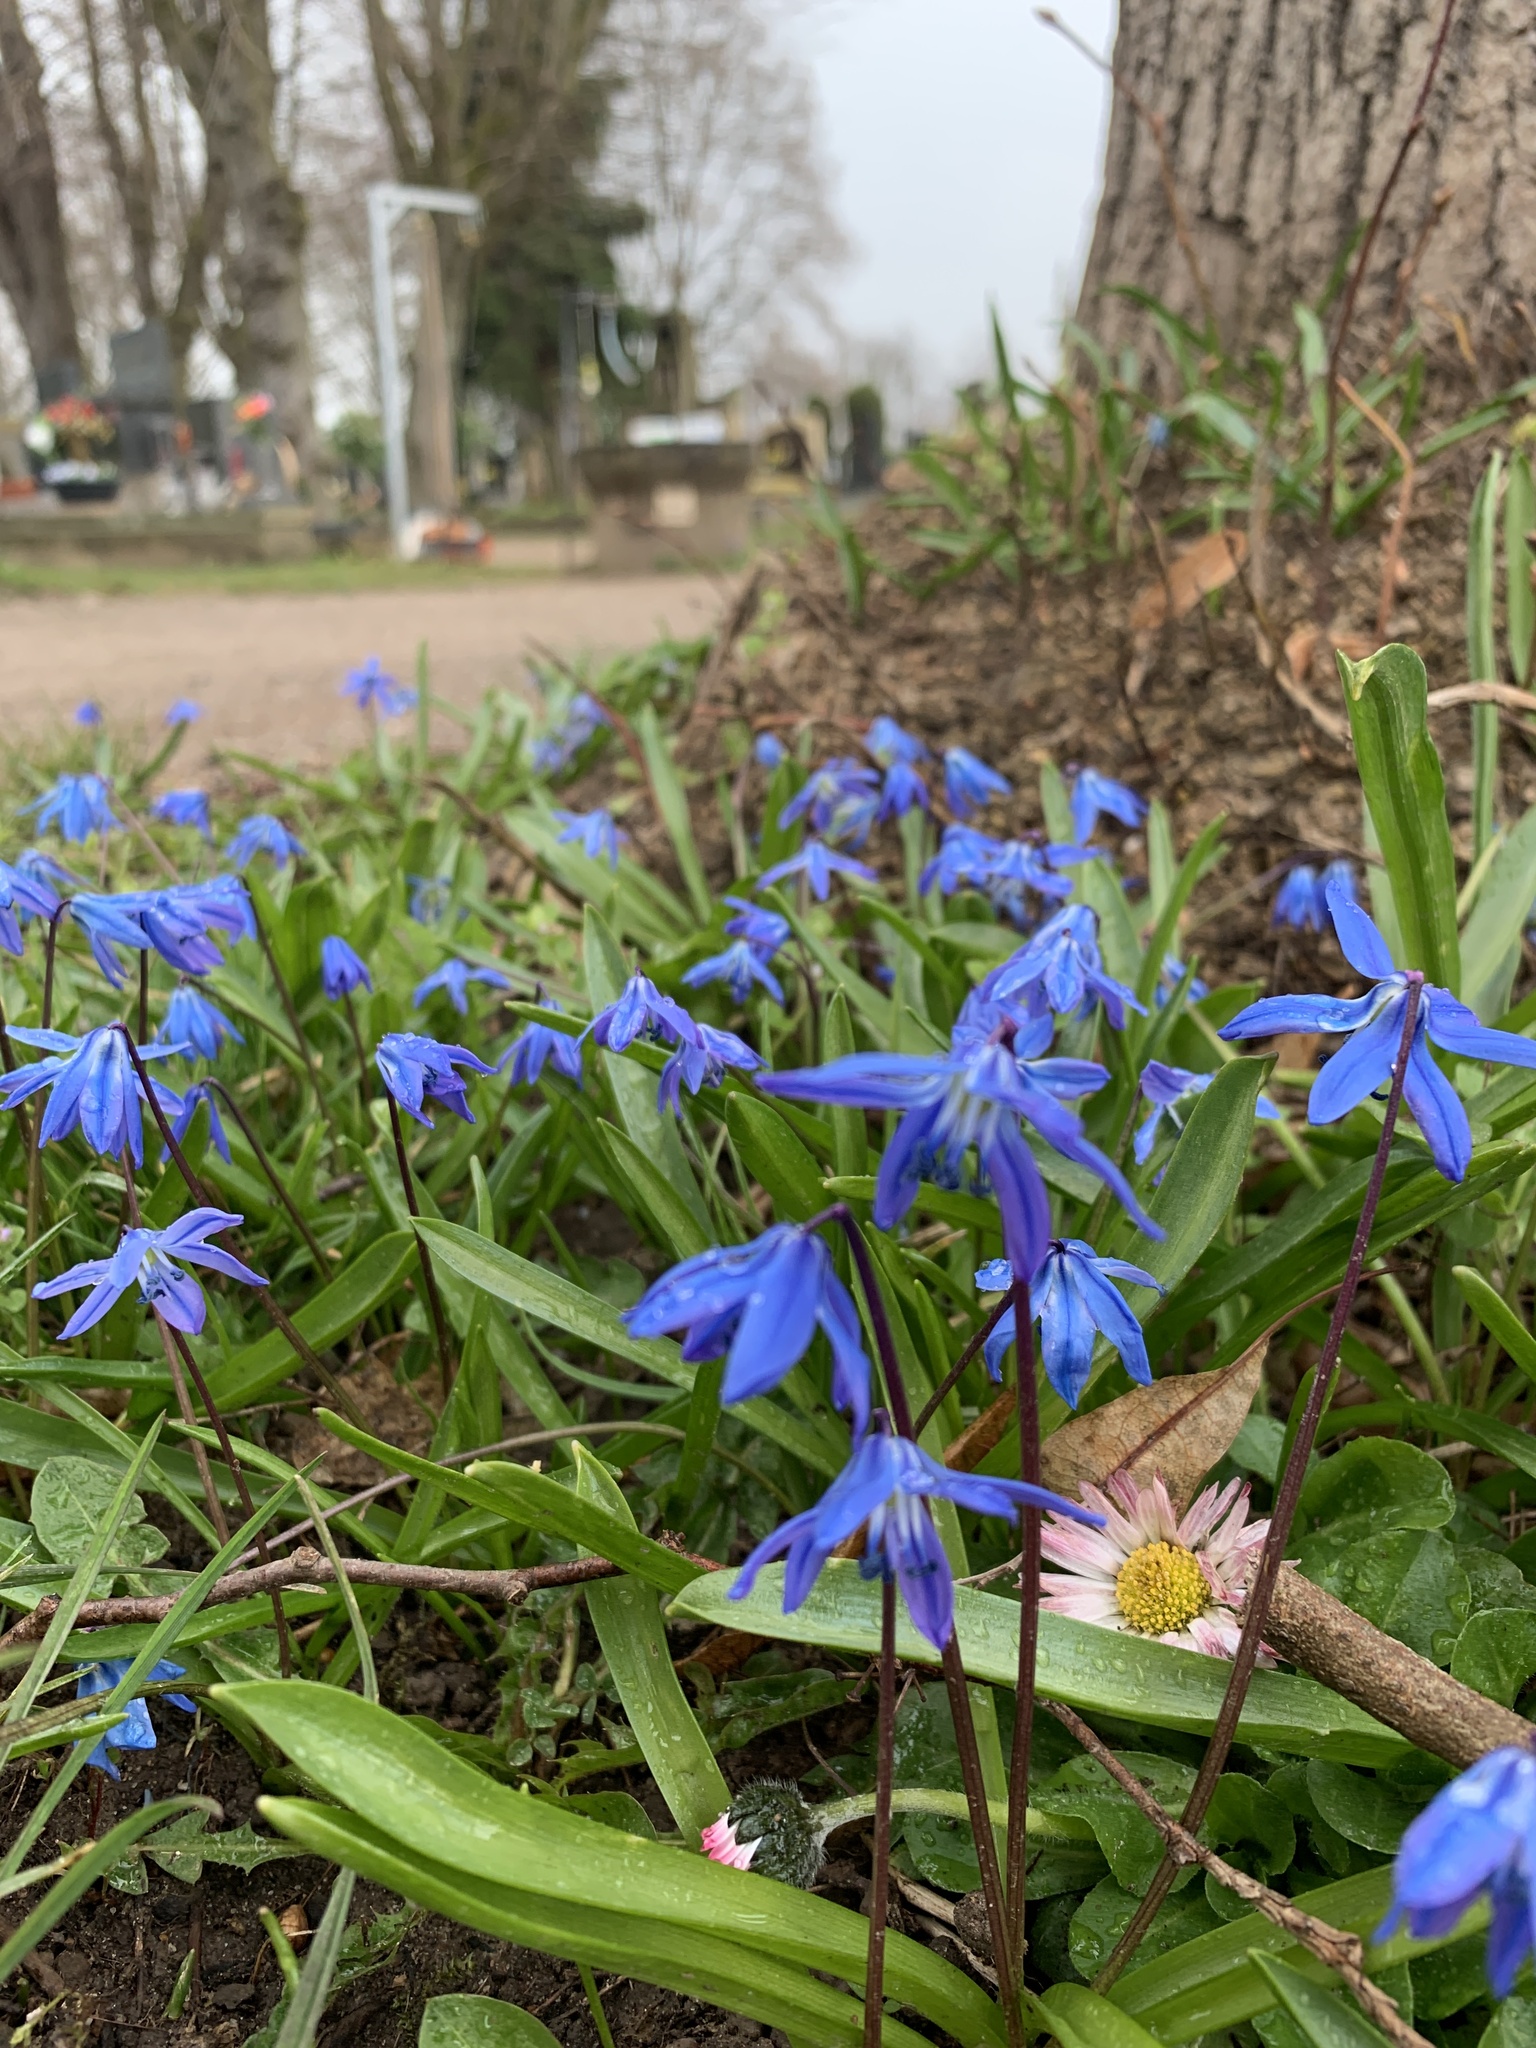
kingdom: Plantae
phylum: Tracheophyta
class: Liliopsida
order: Asparagales
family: Asparagaceae
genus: Scilla
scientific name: Scilla siberica
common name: Siberian squill
